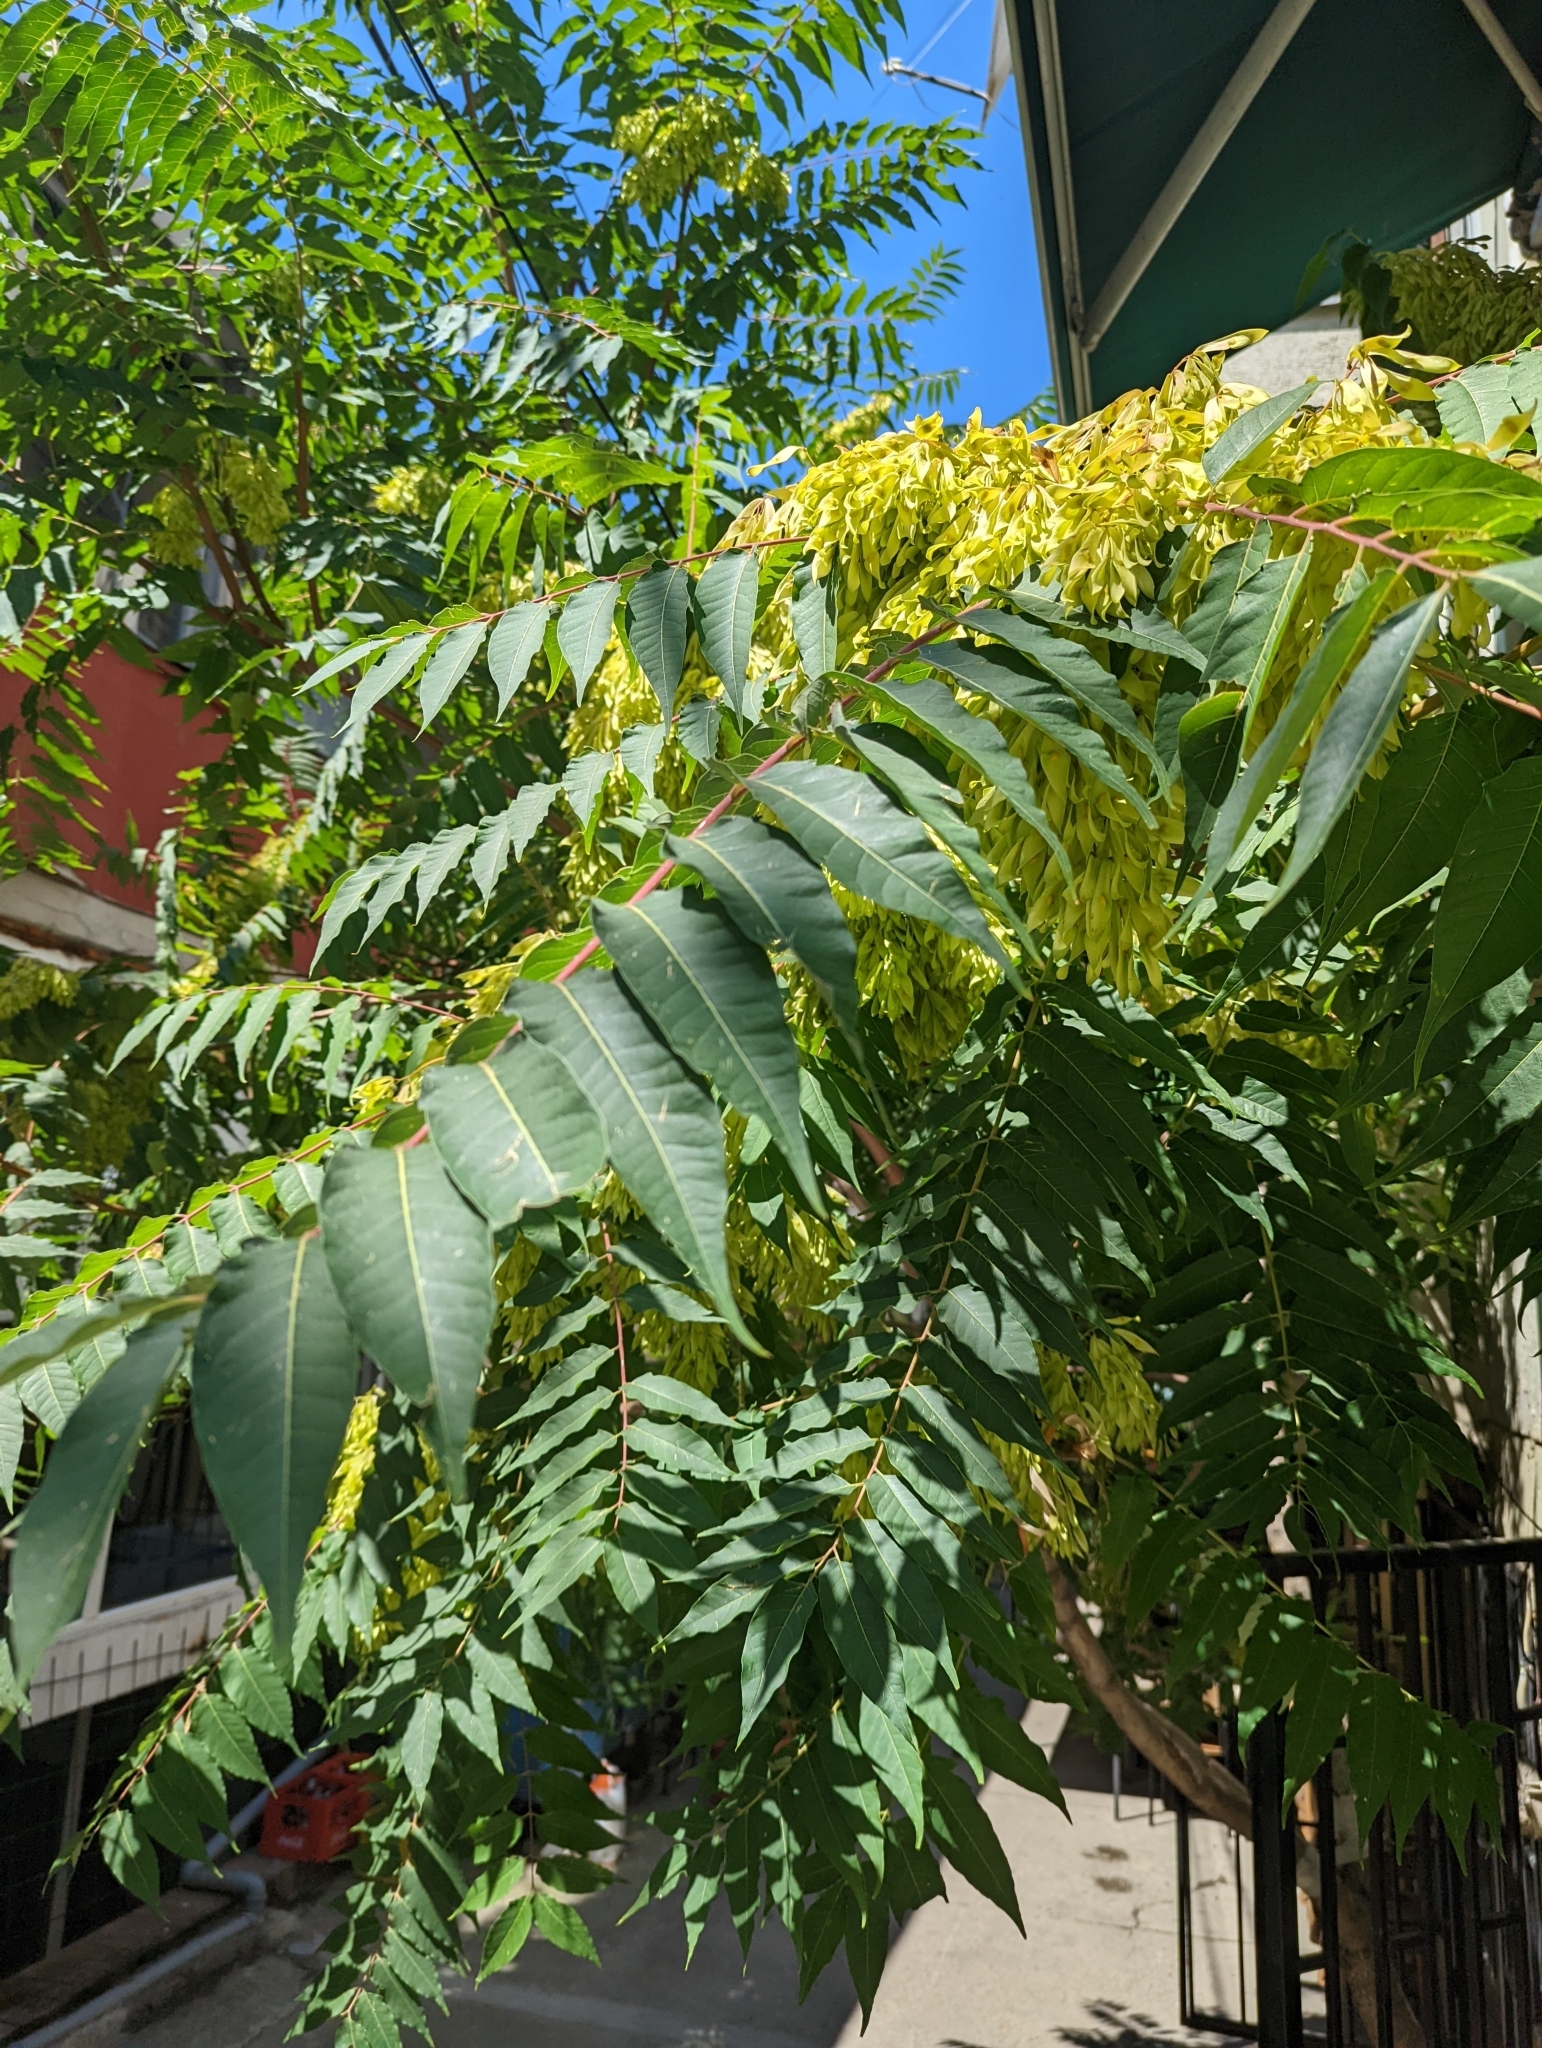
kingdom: Plantae
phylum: Tracheophyta
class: Magnoliopsida
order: Sapindales
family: Simaroubaceae
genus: Ailanthus
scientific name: Ailanthus altissima
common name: Tree-of-heaven
